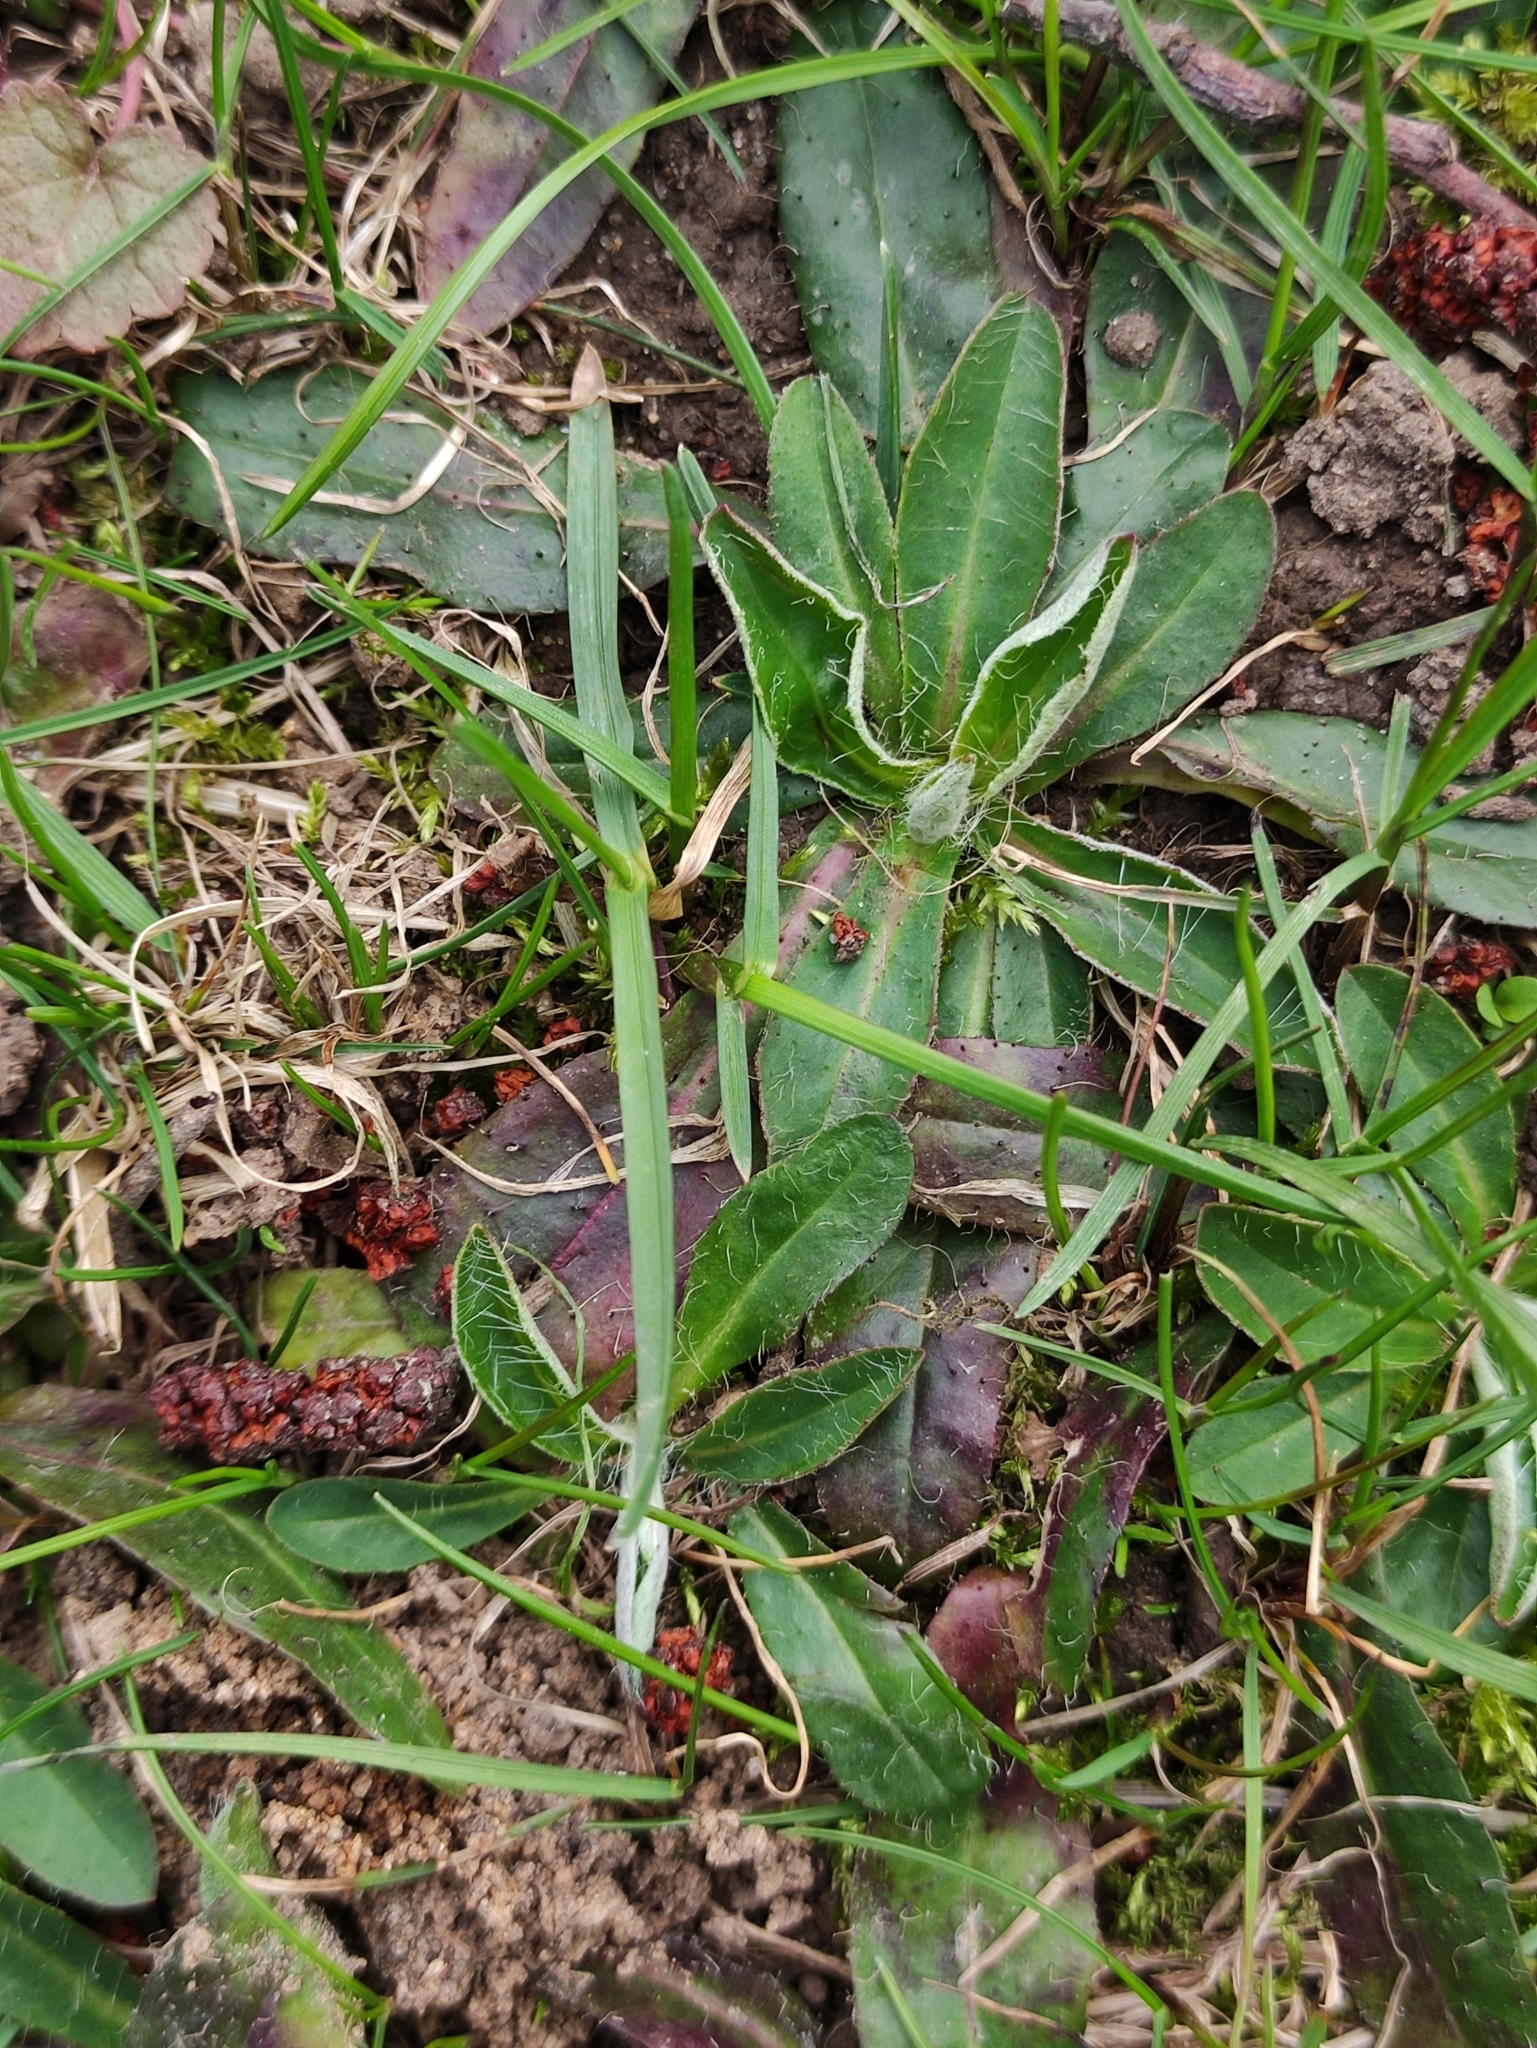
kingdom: Plantae
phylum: Tracheophyta
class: Magnoliopsida
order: Asterales
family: Asteraceae
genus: Pilosella
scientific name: Pilosella officinarum
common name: Mouse-ear hawkweed
